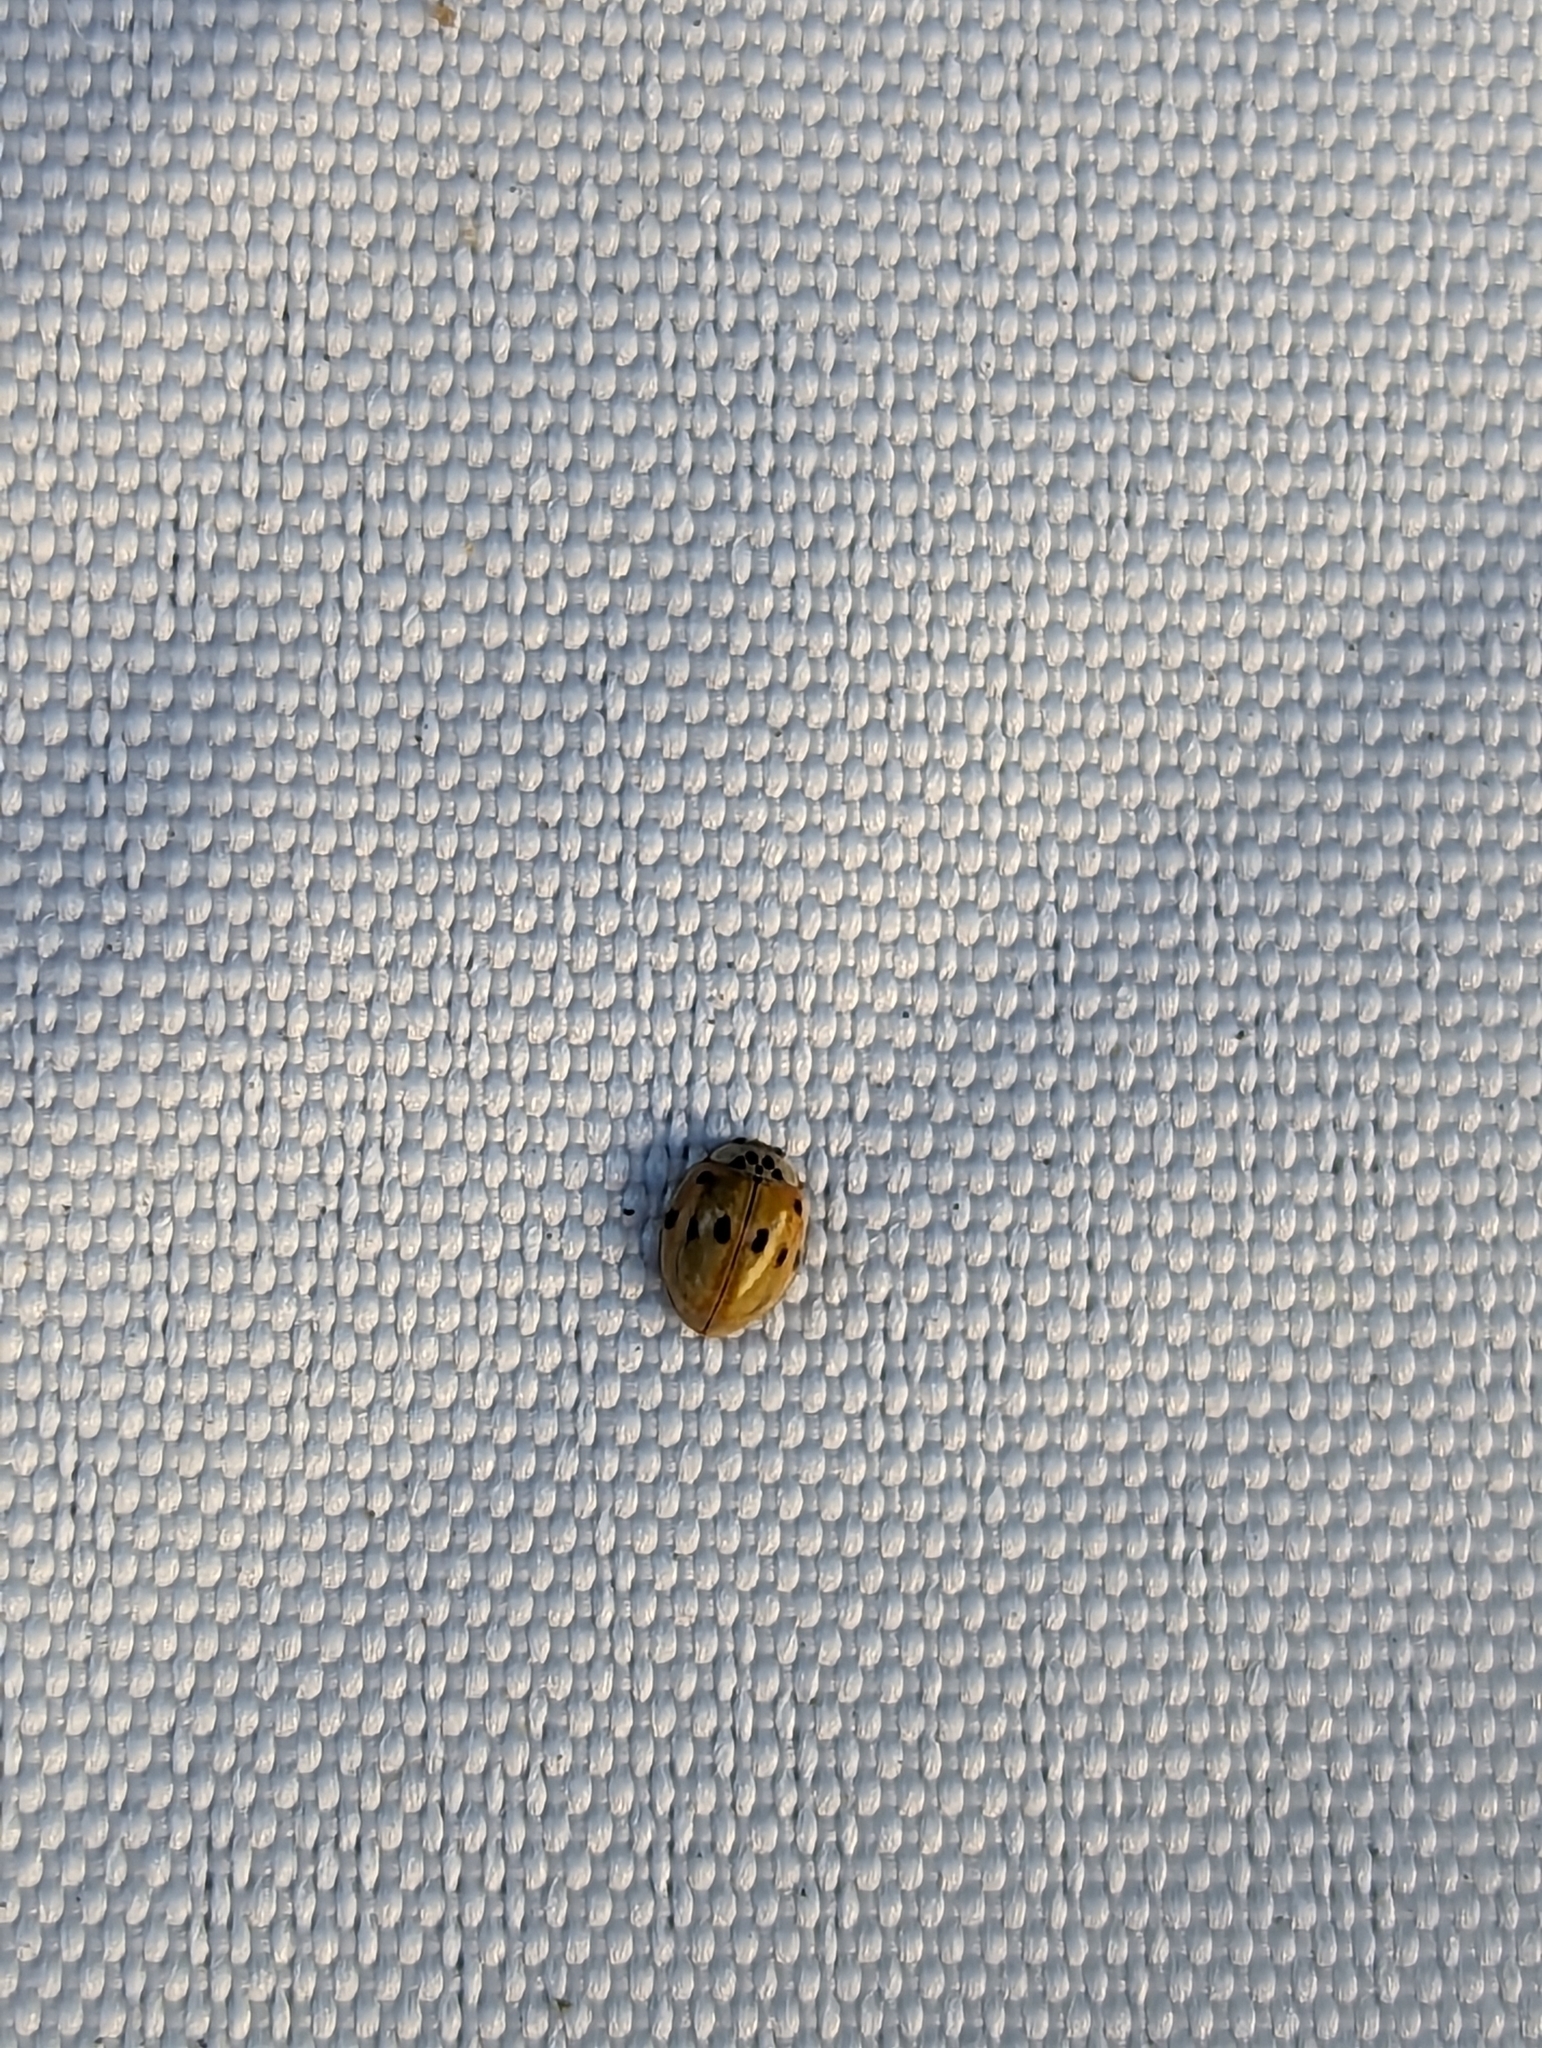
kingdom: Animalia
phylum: Arthropoda
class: Insecta
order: Coleoptera
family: Coccinellidae
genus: Adalia
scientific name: Adalia decempunctata
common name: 10-spot ladybird
